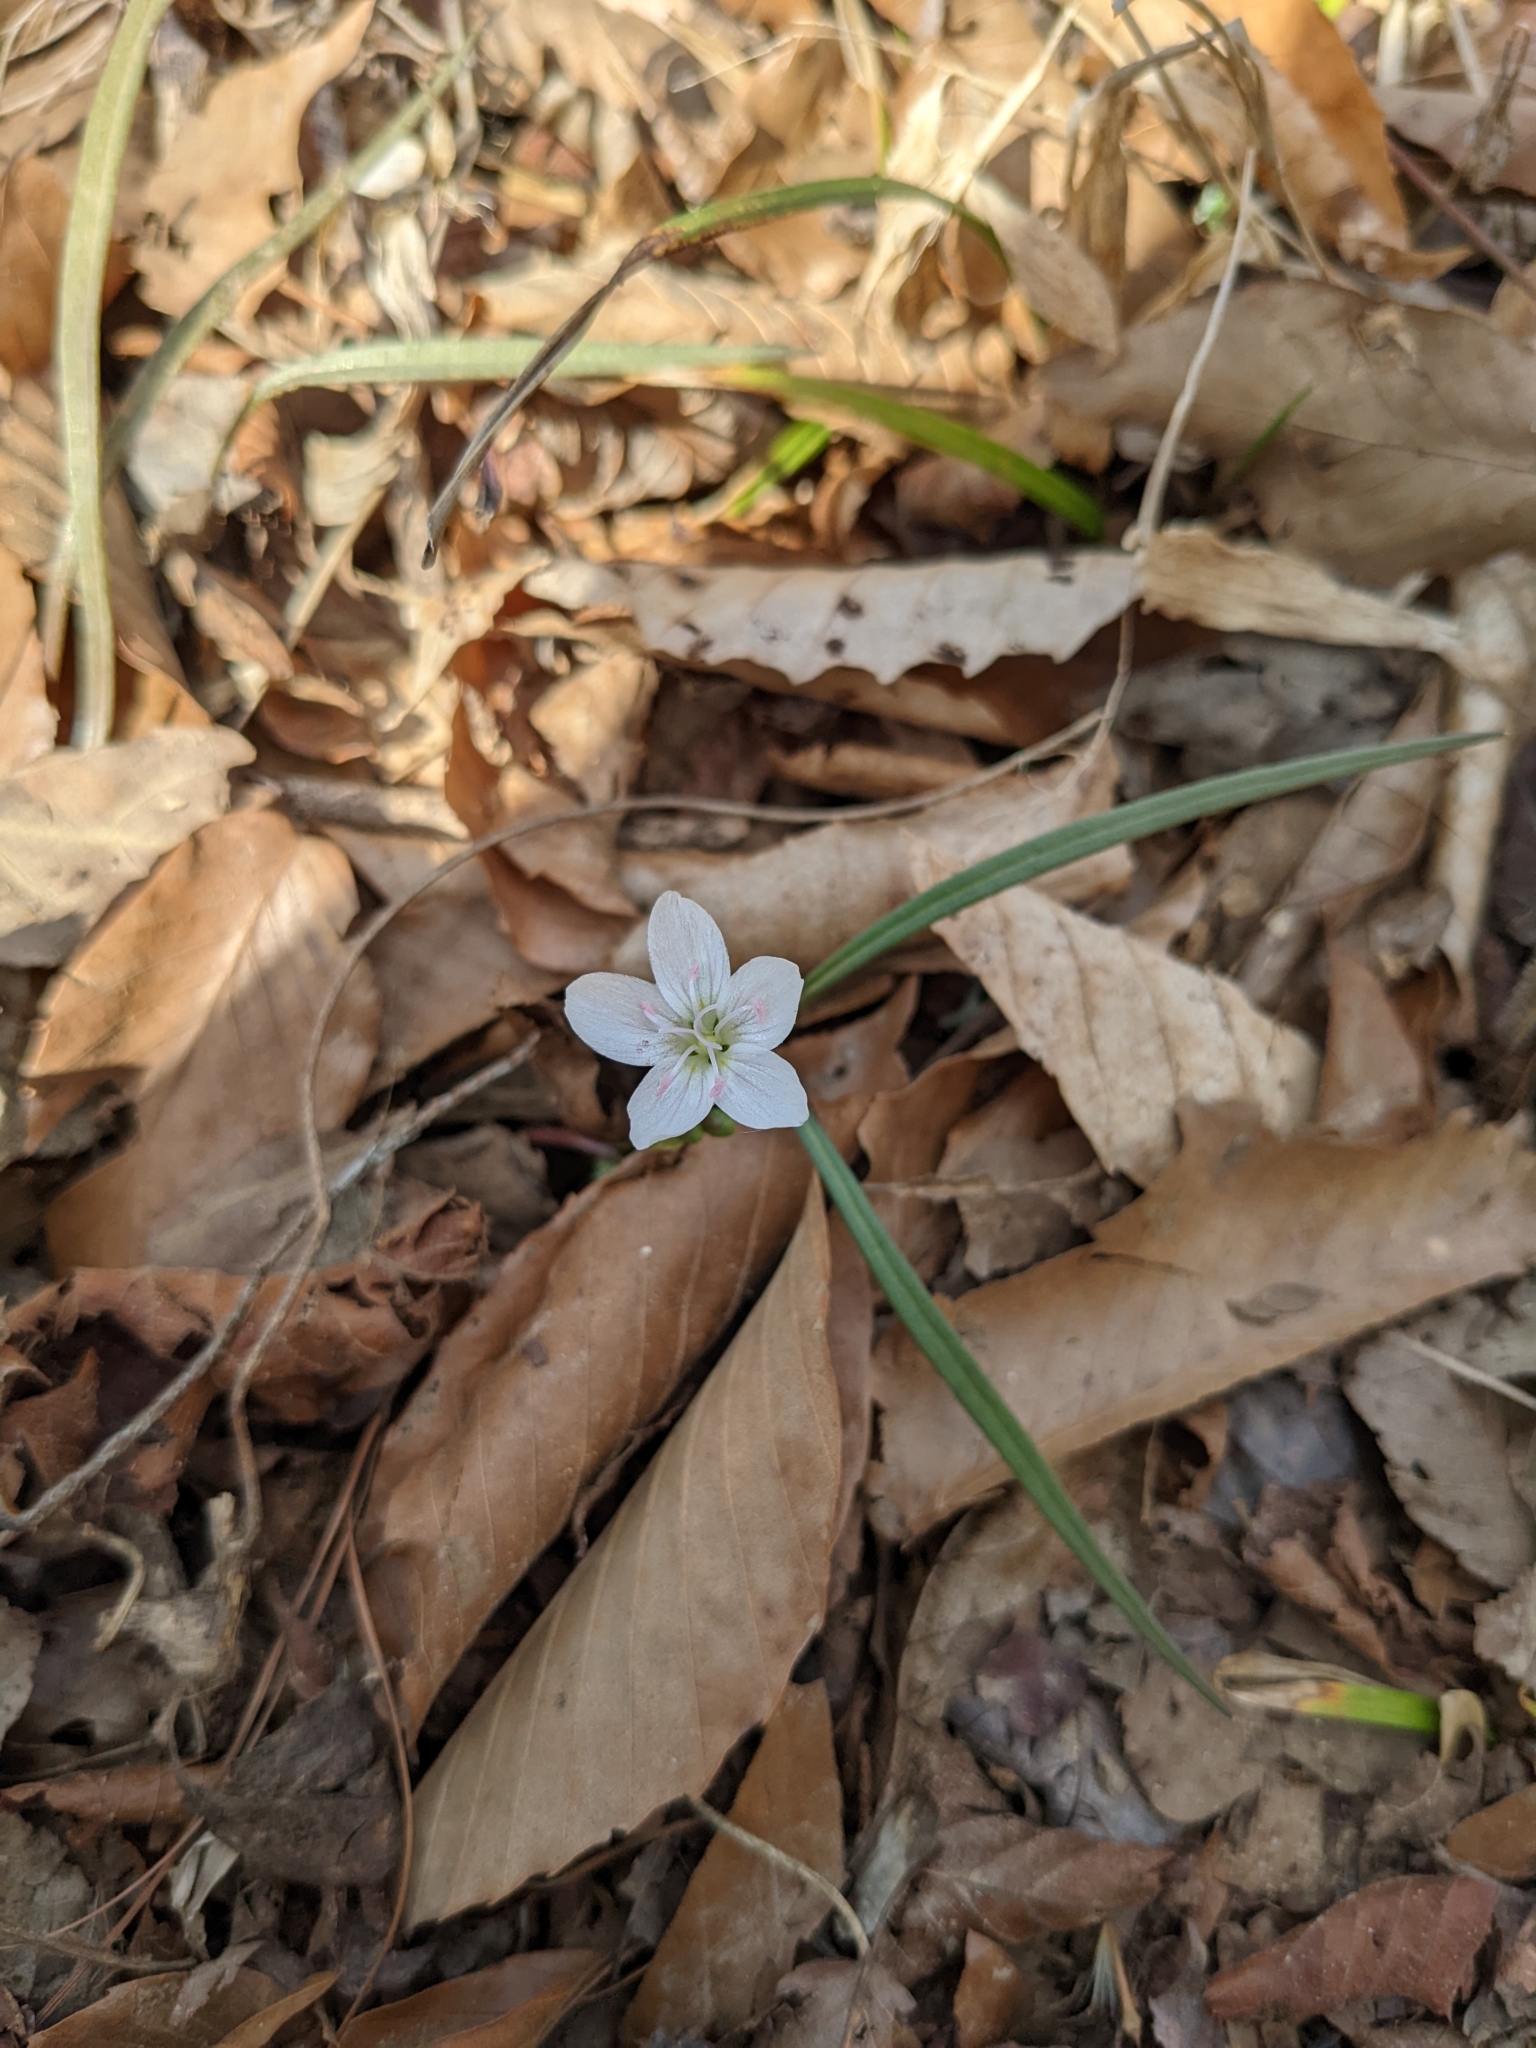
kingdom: Plantae
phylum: Tracheophyta
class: Magnoliopsida
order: Caryophyllales
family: Montiaceae
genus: Claytonia
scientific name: Claytonia virginica
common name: Virginia springbeauty
